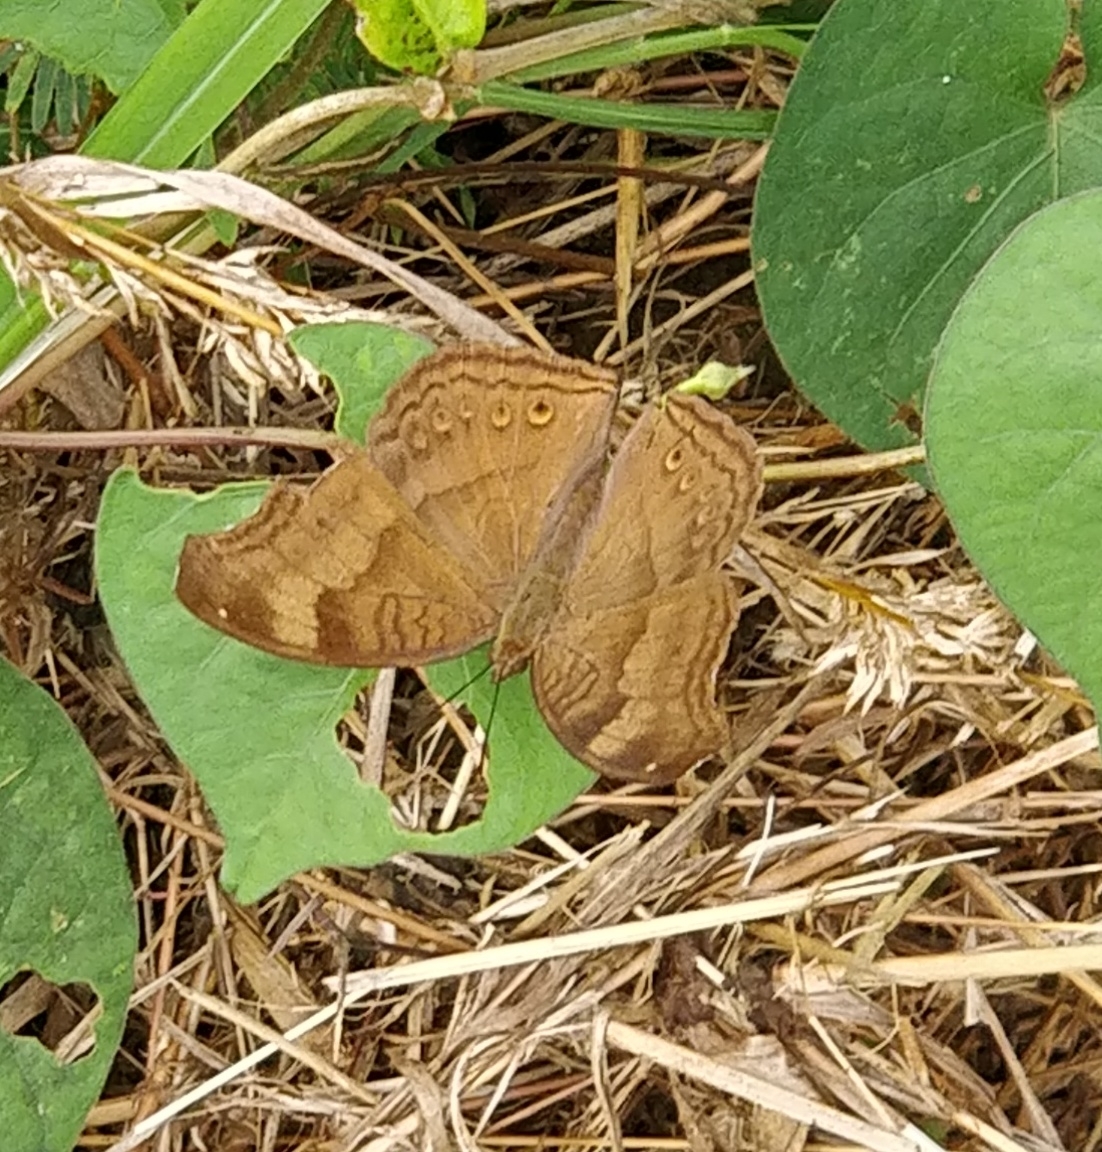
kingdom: Animalia
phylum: Arthropoda
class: Insecta
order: Lepidoptera
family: Nymphalidae
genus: Junonia
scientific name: Junonia iphita
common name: Chocolate pansy
